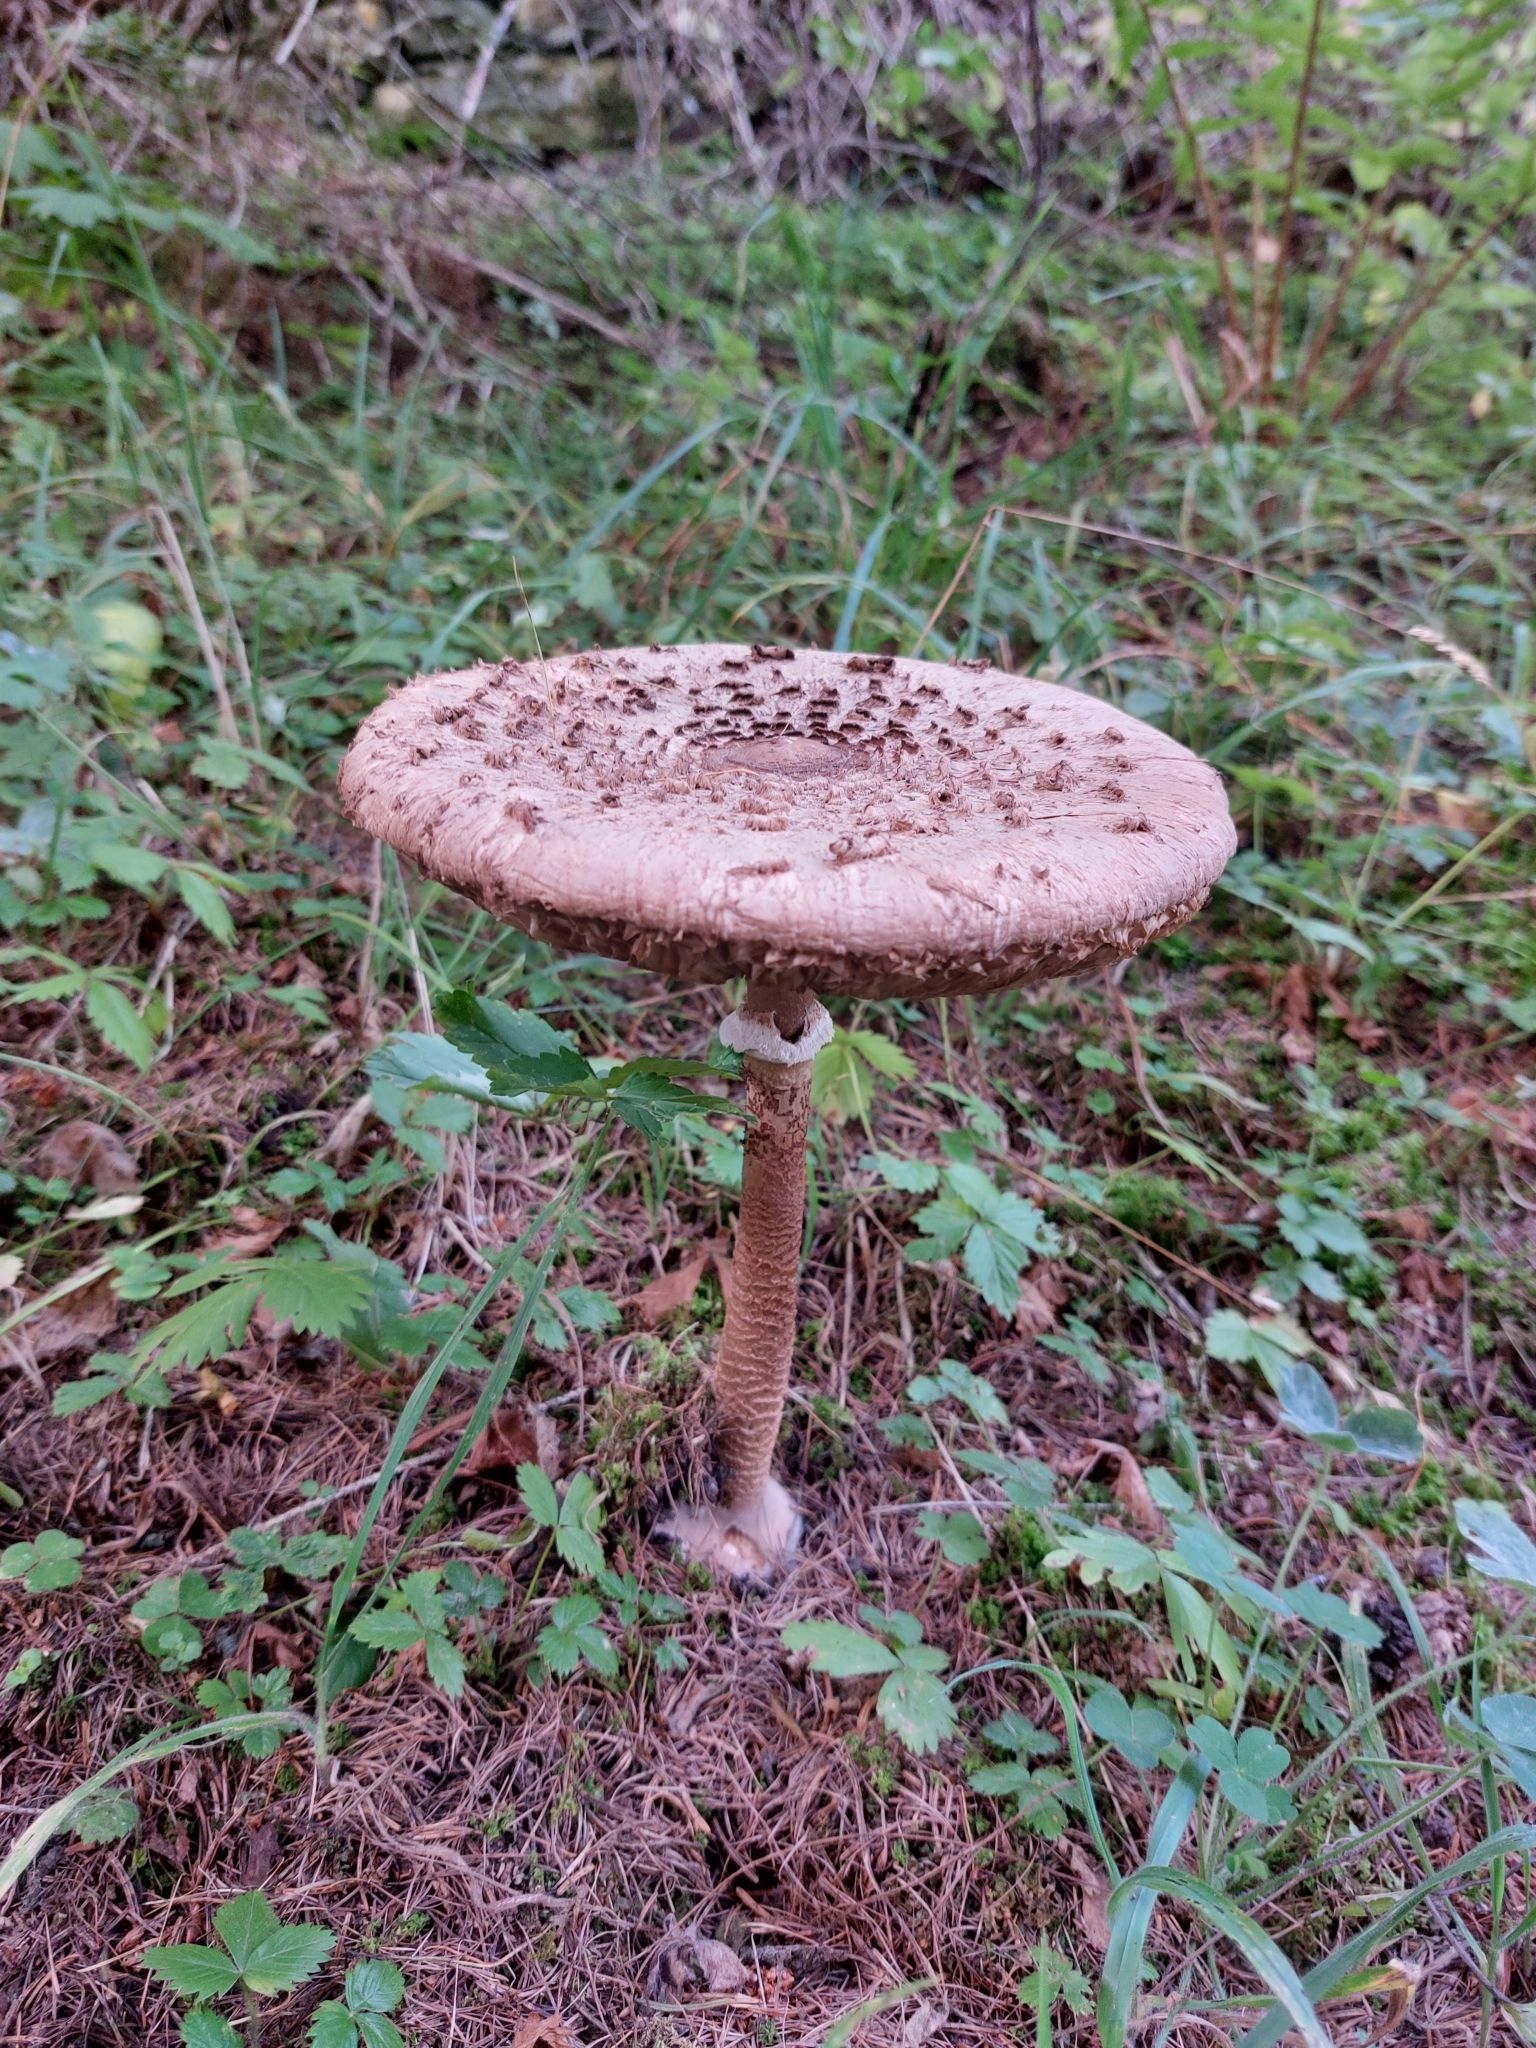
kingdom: Fungi
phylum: Basidiomycota
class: Agaricomycetes
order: Agaricales
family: Agaricaceae
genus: Macrolepiota
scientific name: Macrolepiota procera
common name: Parasol
